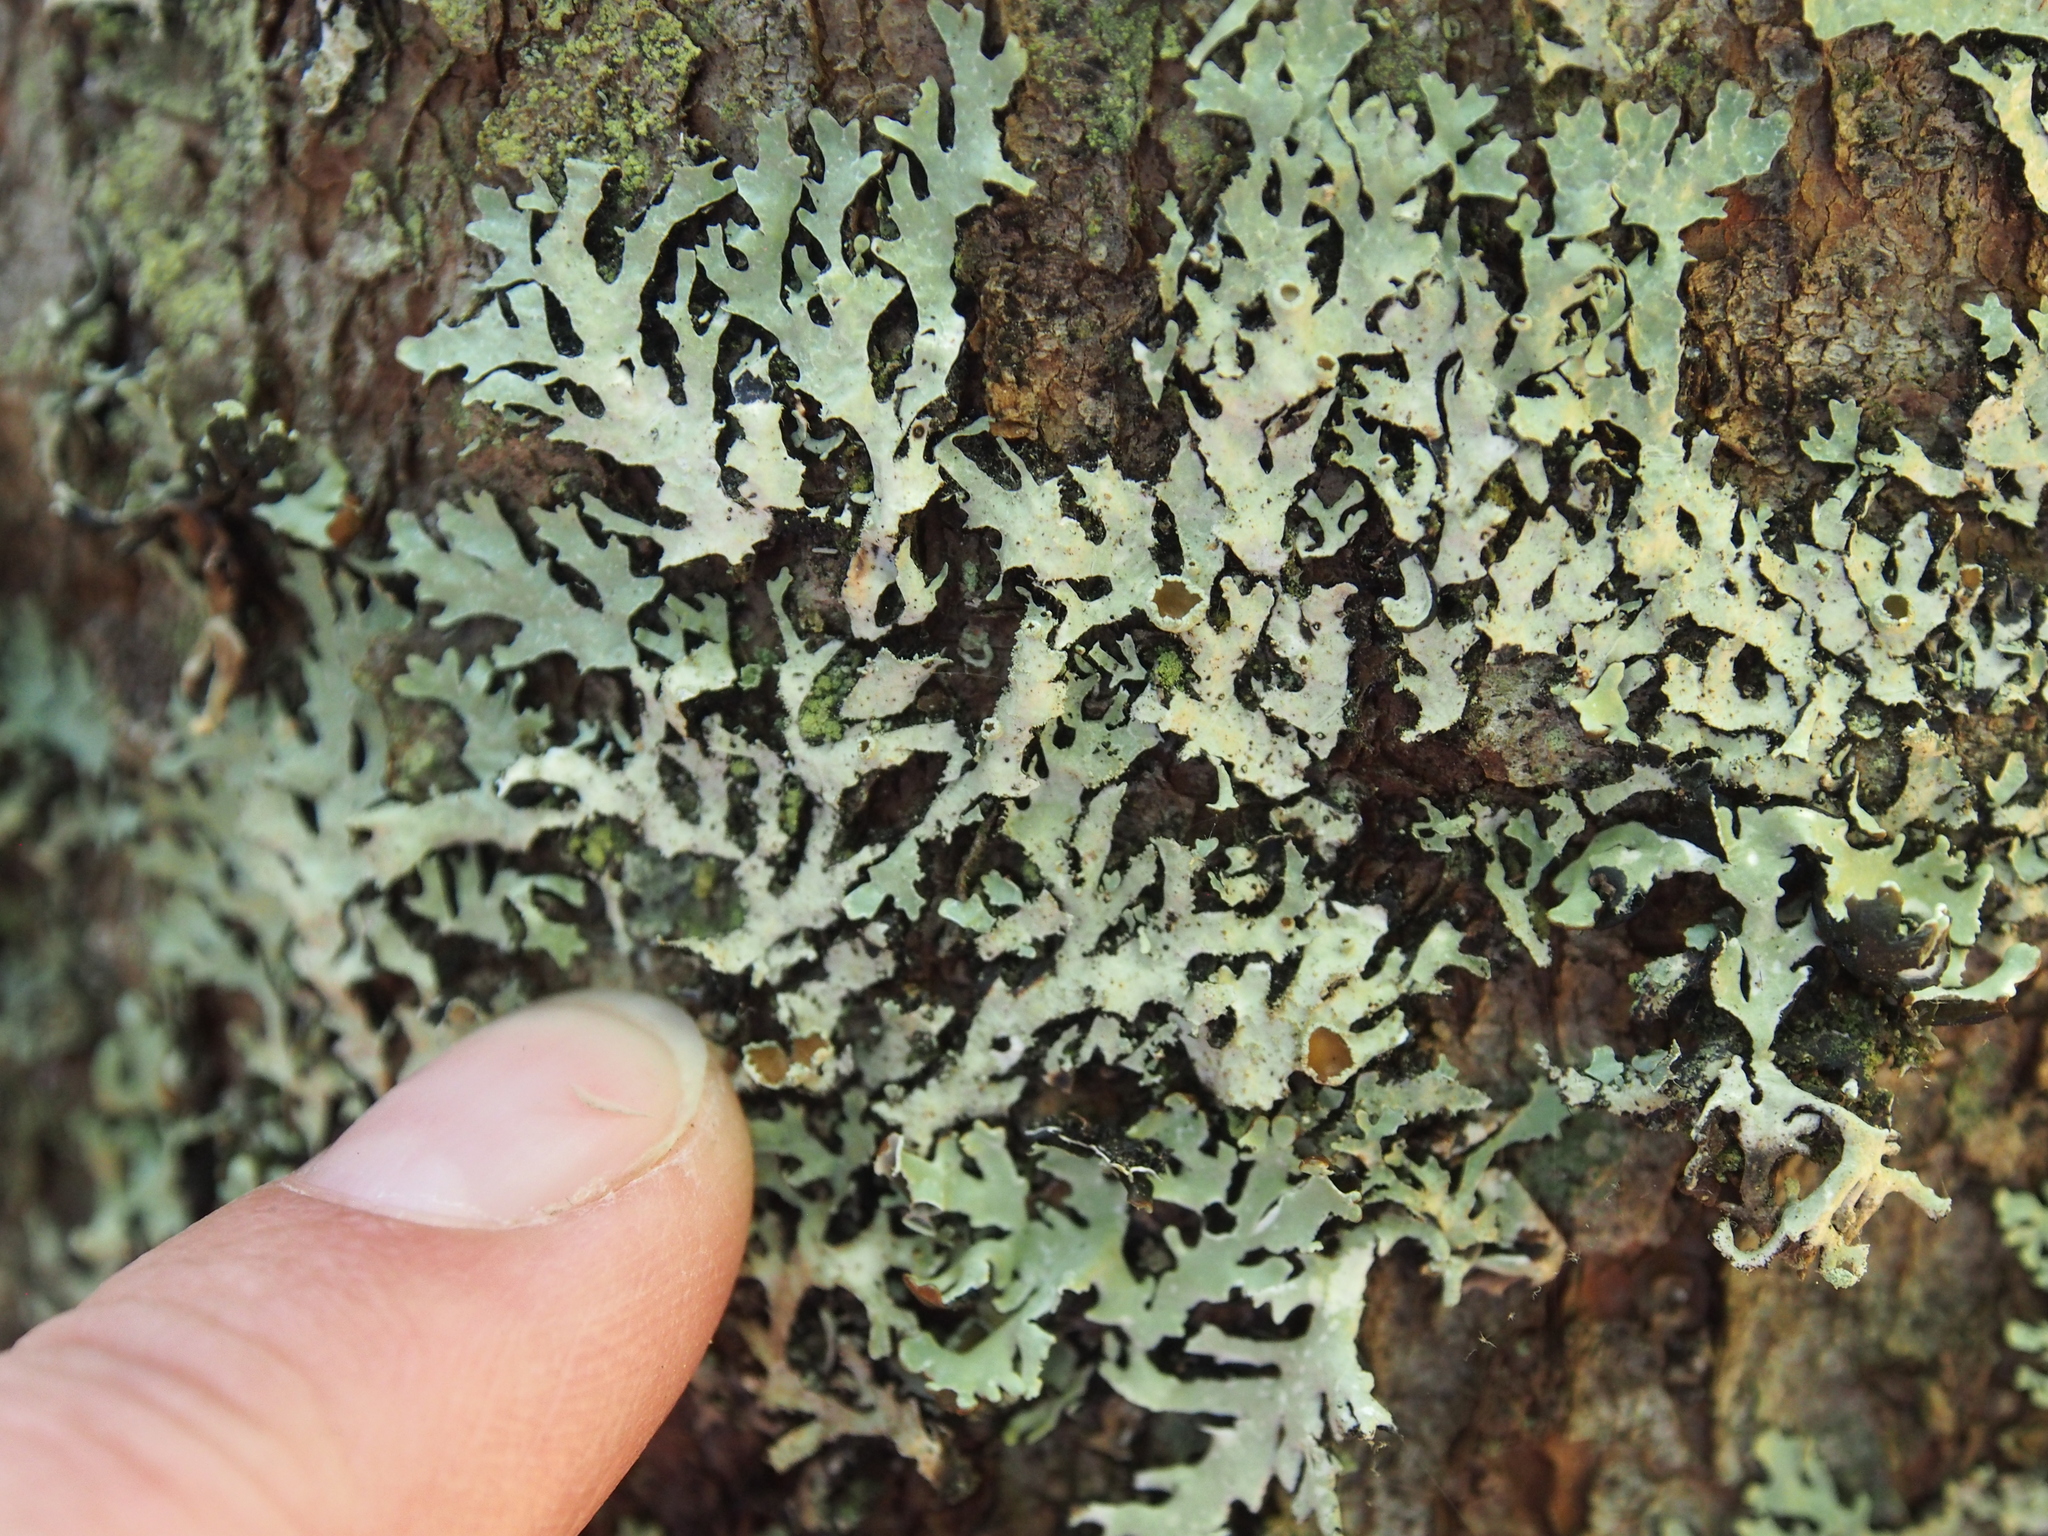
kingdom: Fungi
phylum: Ascomycota
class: Lecanoromycetes
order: Lecanorales
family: Parmeliaceae
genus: Parmelia
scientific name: Parmelia squarrosa
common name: Bottle brush shield lichen
